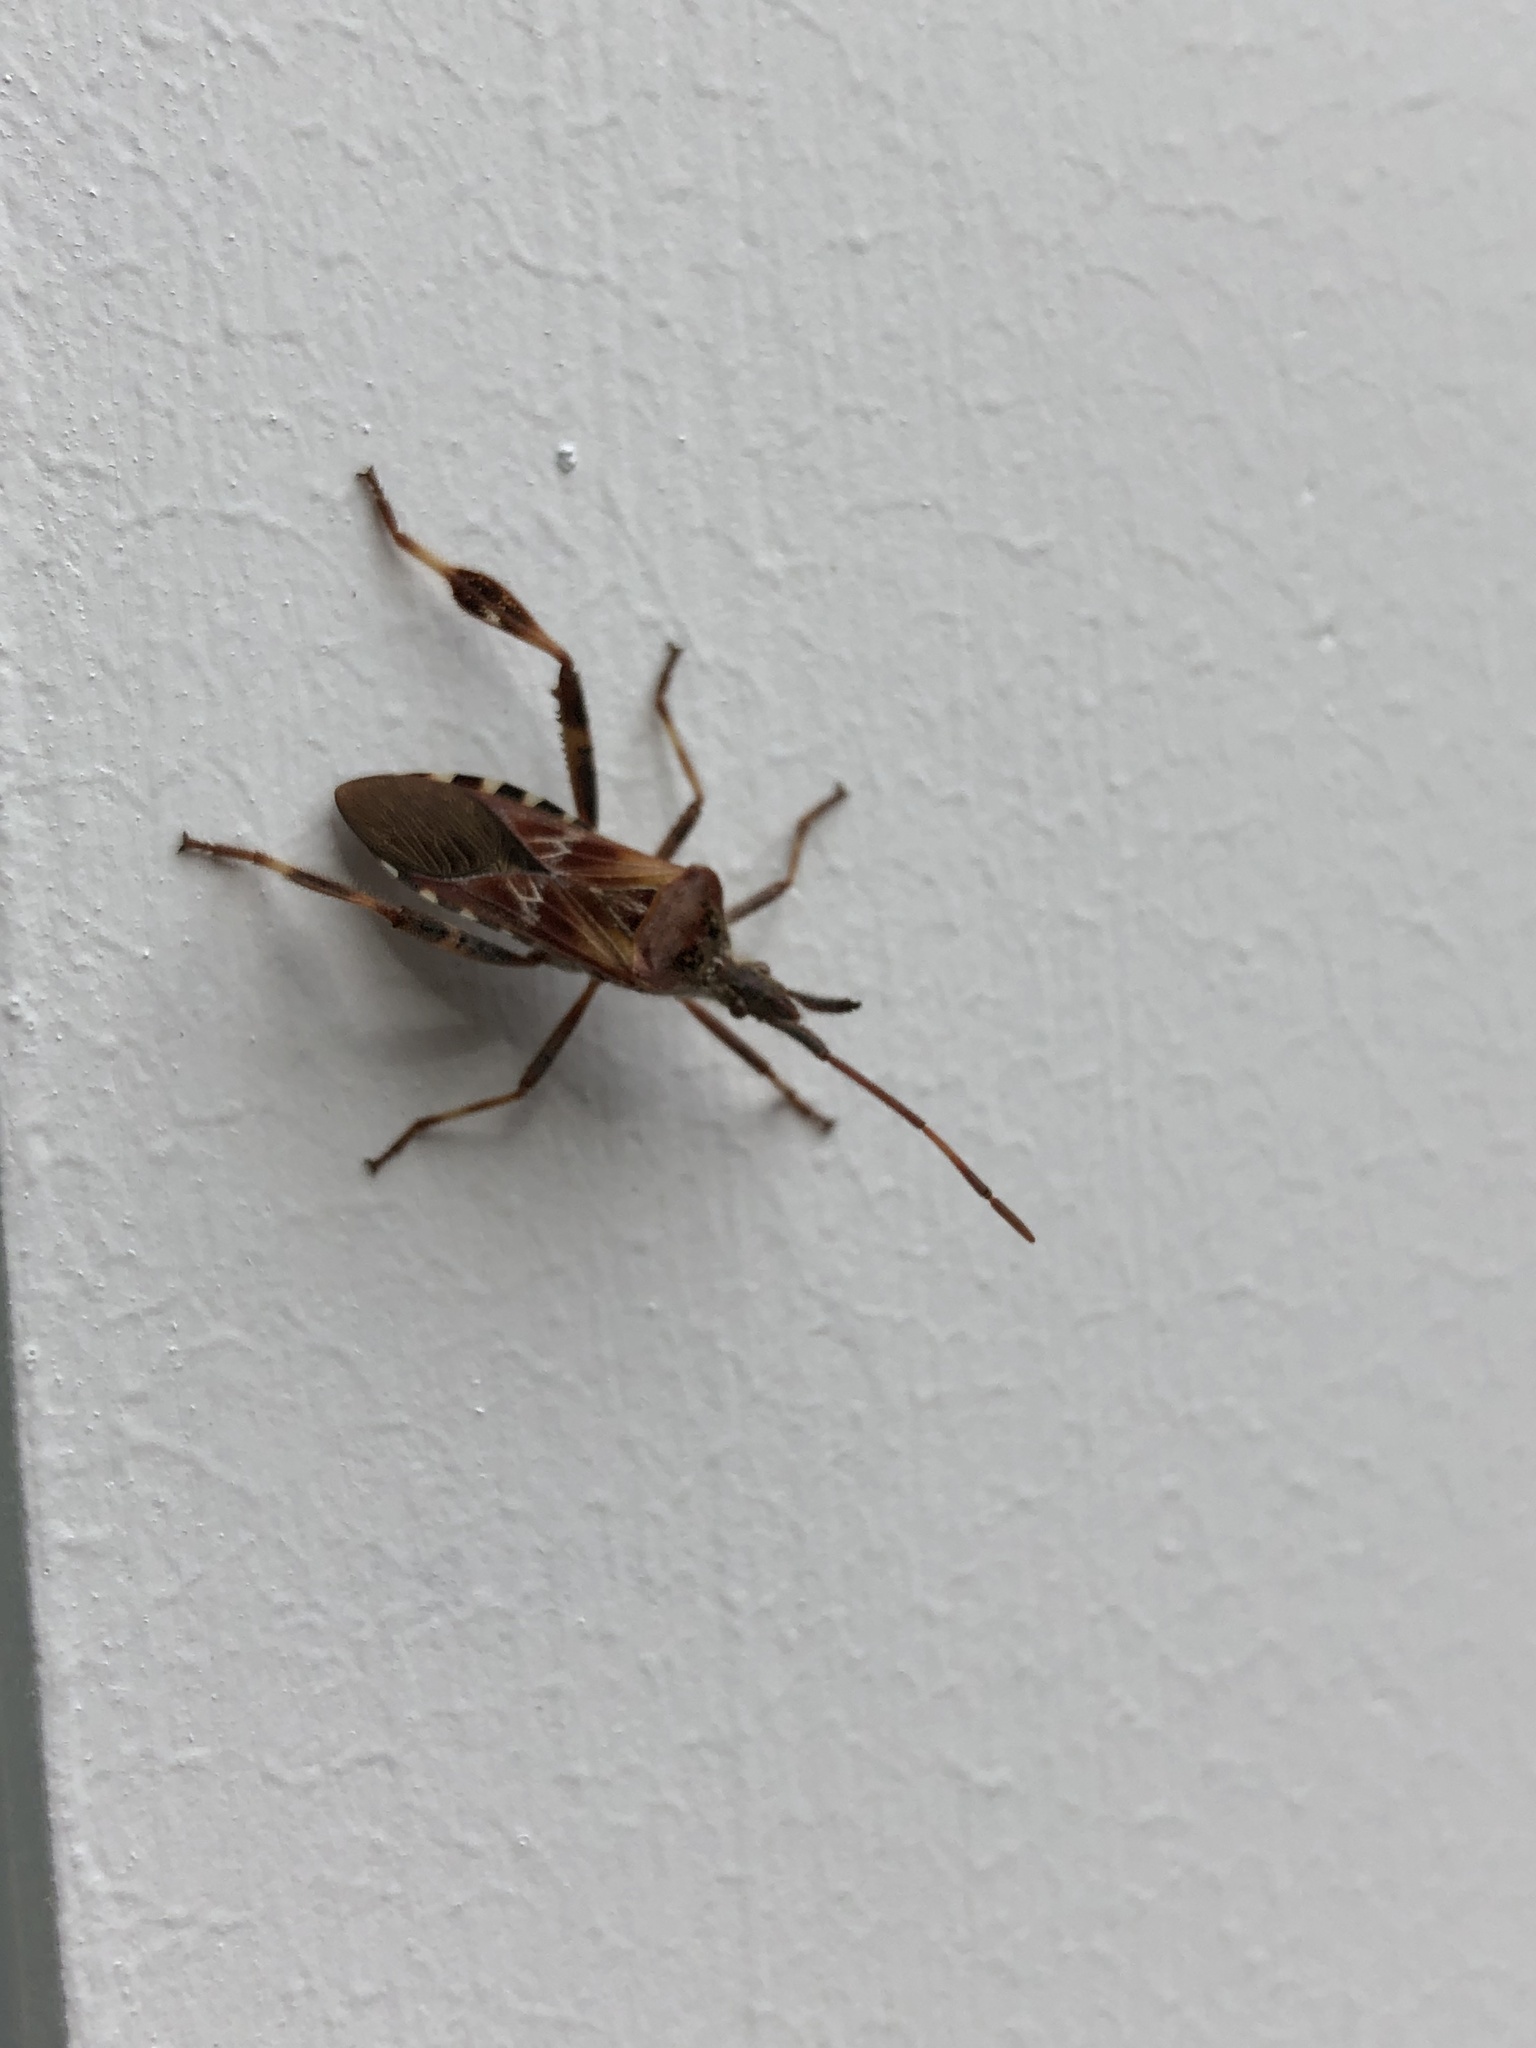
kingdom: Animalia
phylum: Arthropoda
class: Insecta
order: Hemiptera
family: Coreidae
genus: Leptoglossus
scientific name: Leptoglossus occidentalis
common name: Western conifer-seed bug
